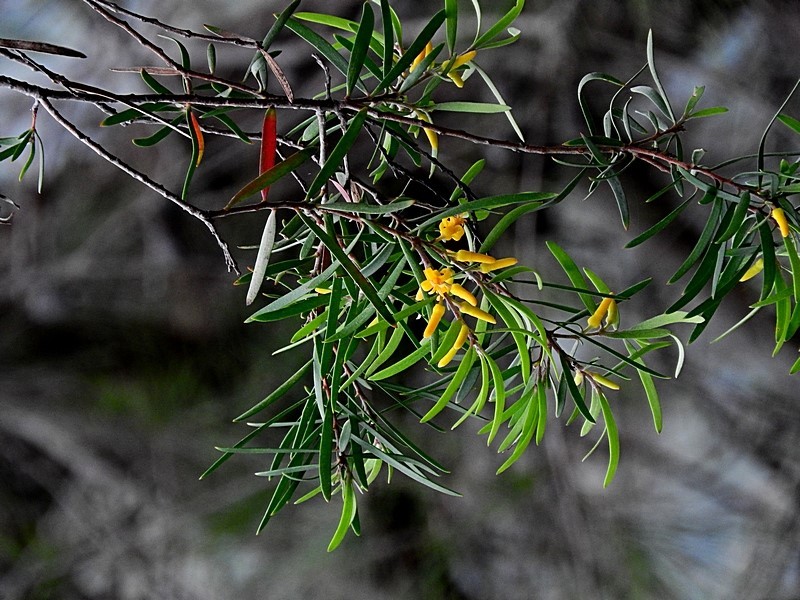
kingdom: Plantae
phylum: Tracheophyta
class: Magnoliopsida
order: Proteales
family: Proteaceae
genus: Persoonia
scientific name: Persoonia linearis
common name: Narrow-leaf geebung
